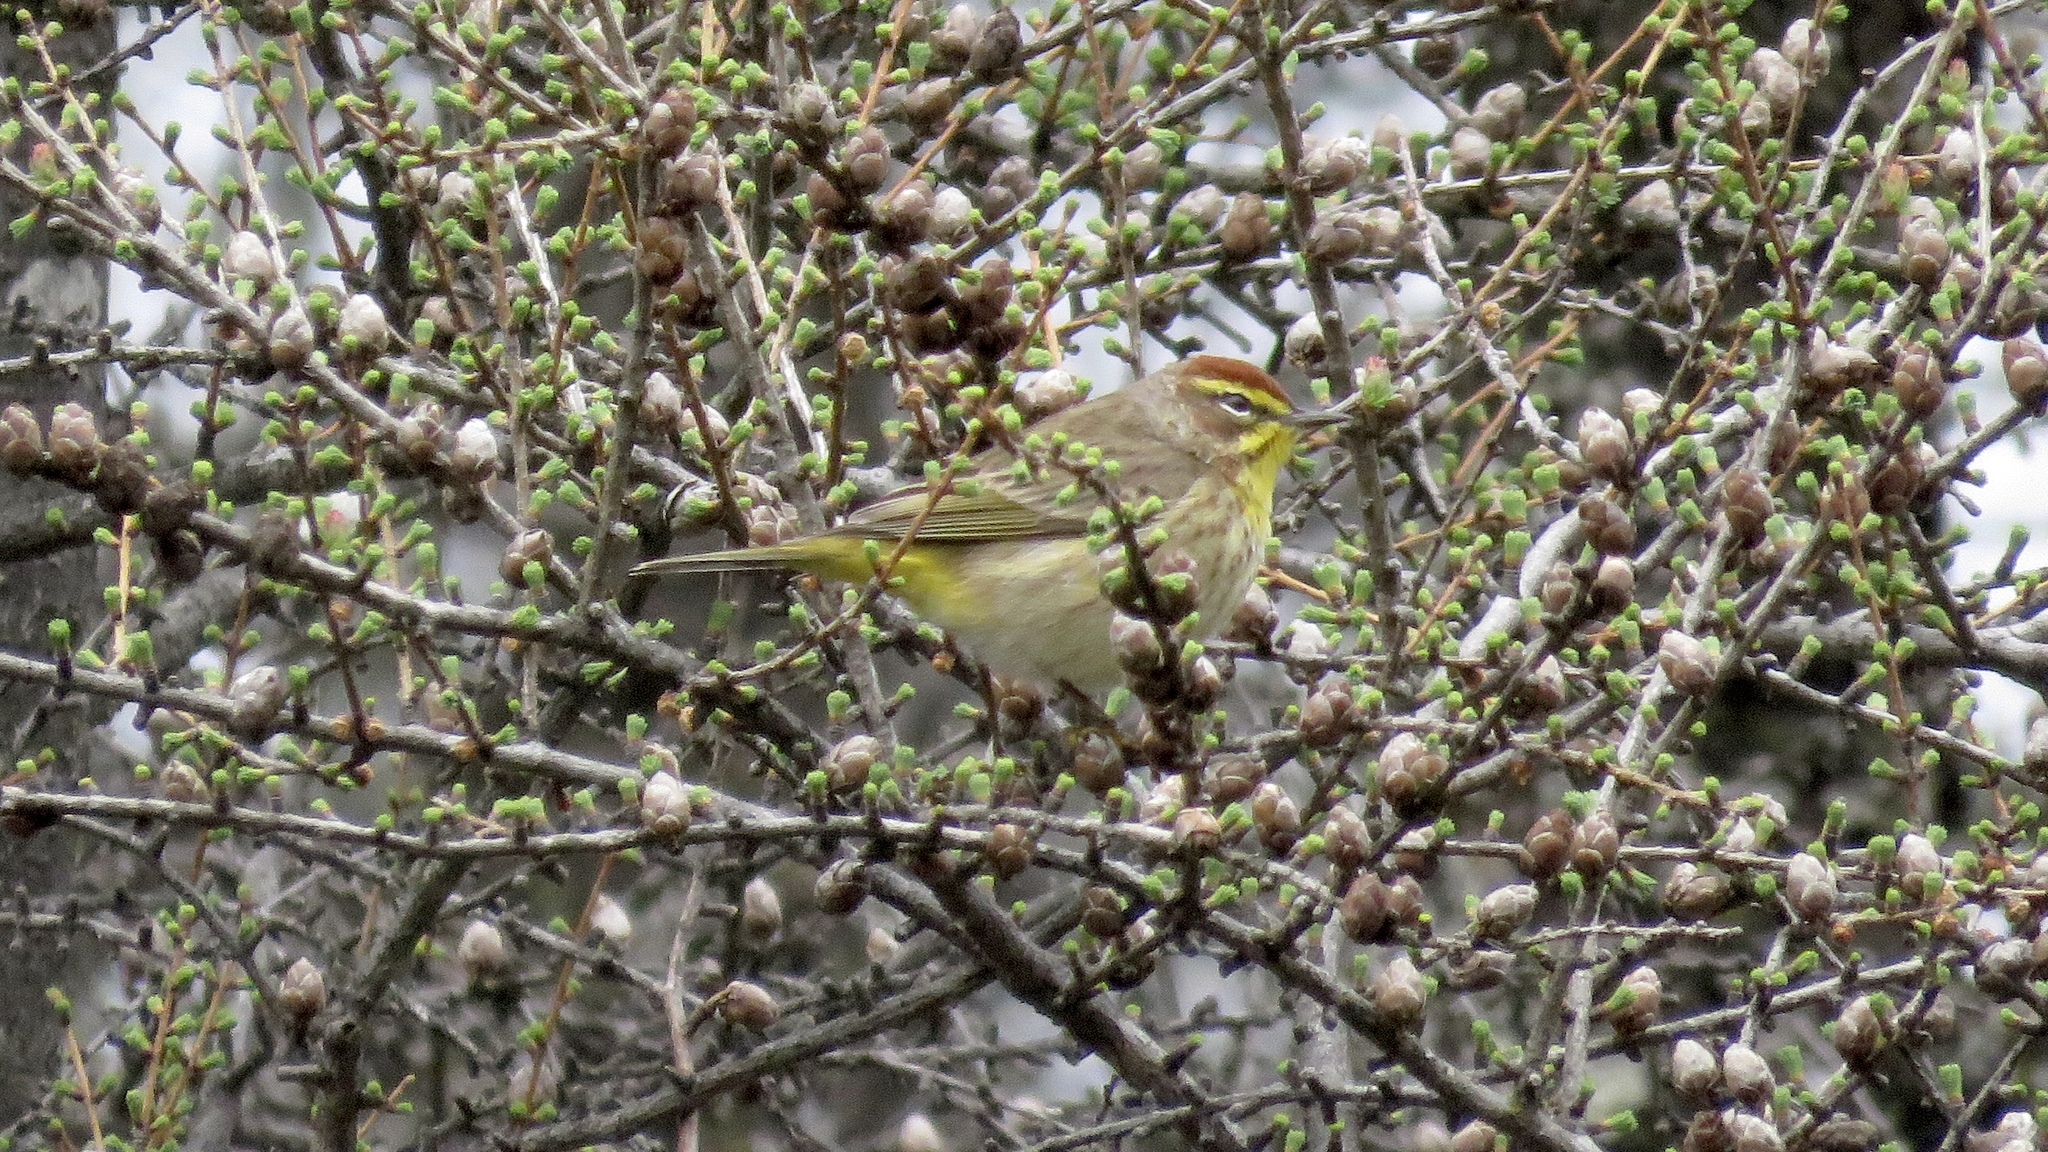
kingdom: Animalia
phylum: Chordata
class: Aves
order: Passeriformes
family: Parulidae
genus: Setophaga
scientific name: Setophaga palmarum
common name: Palm warbler
